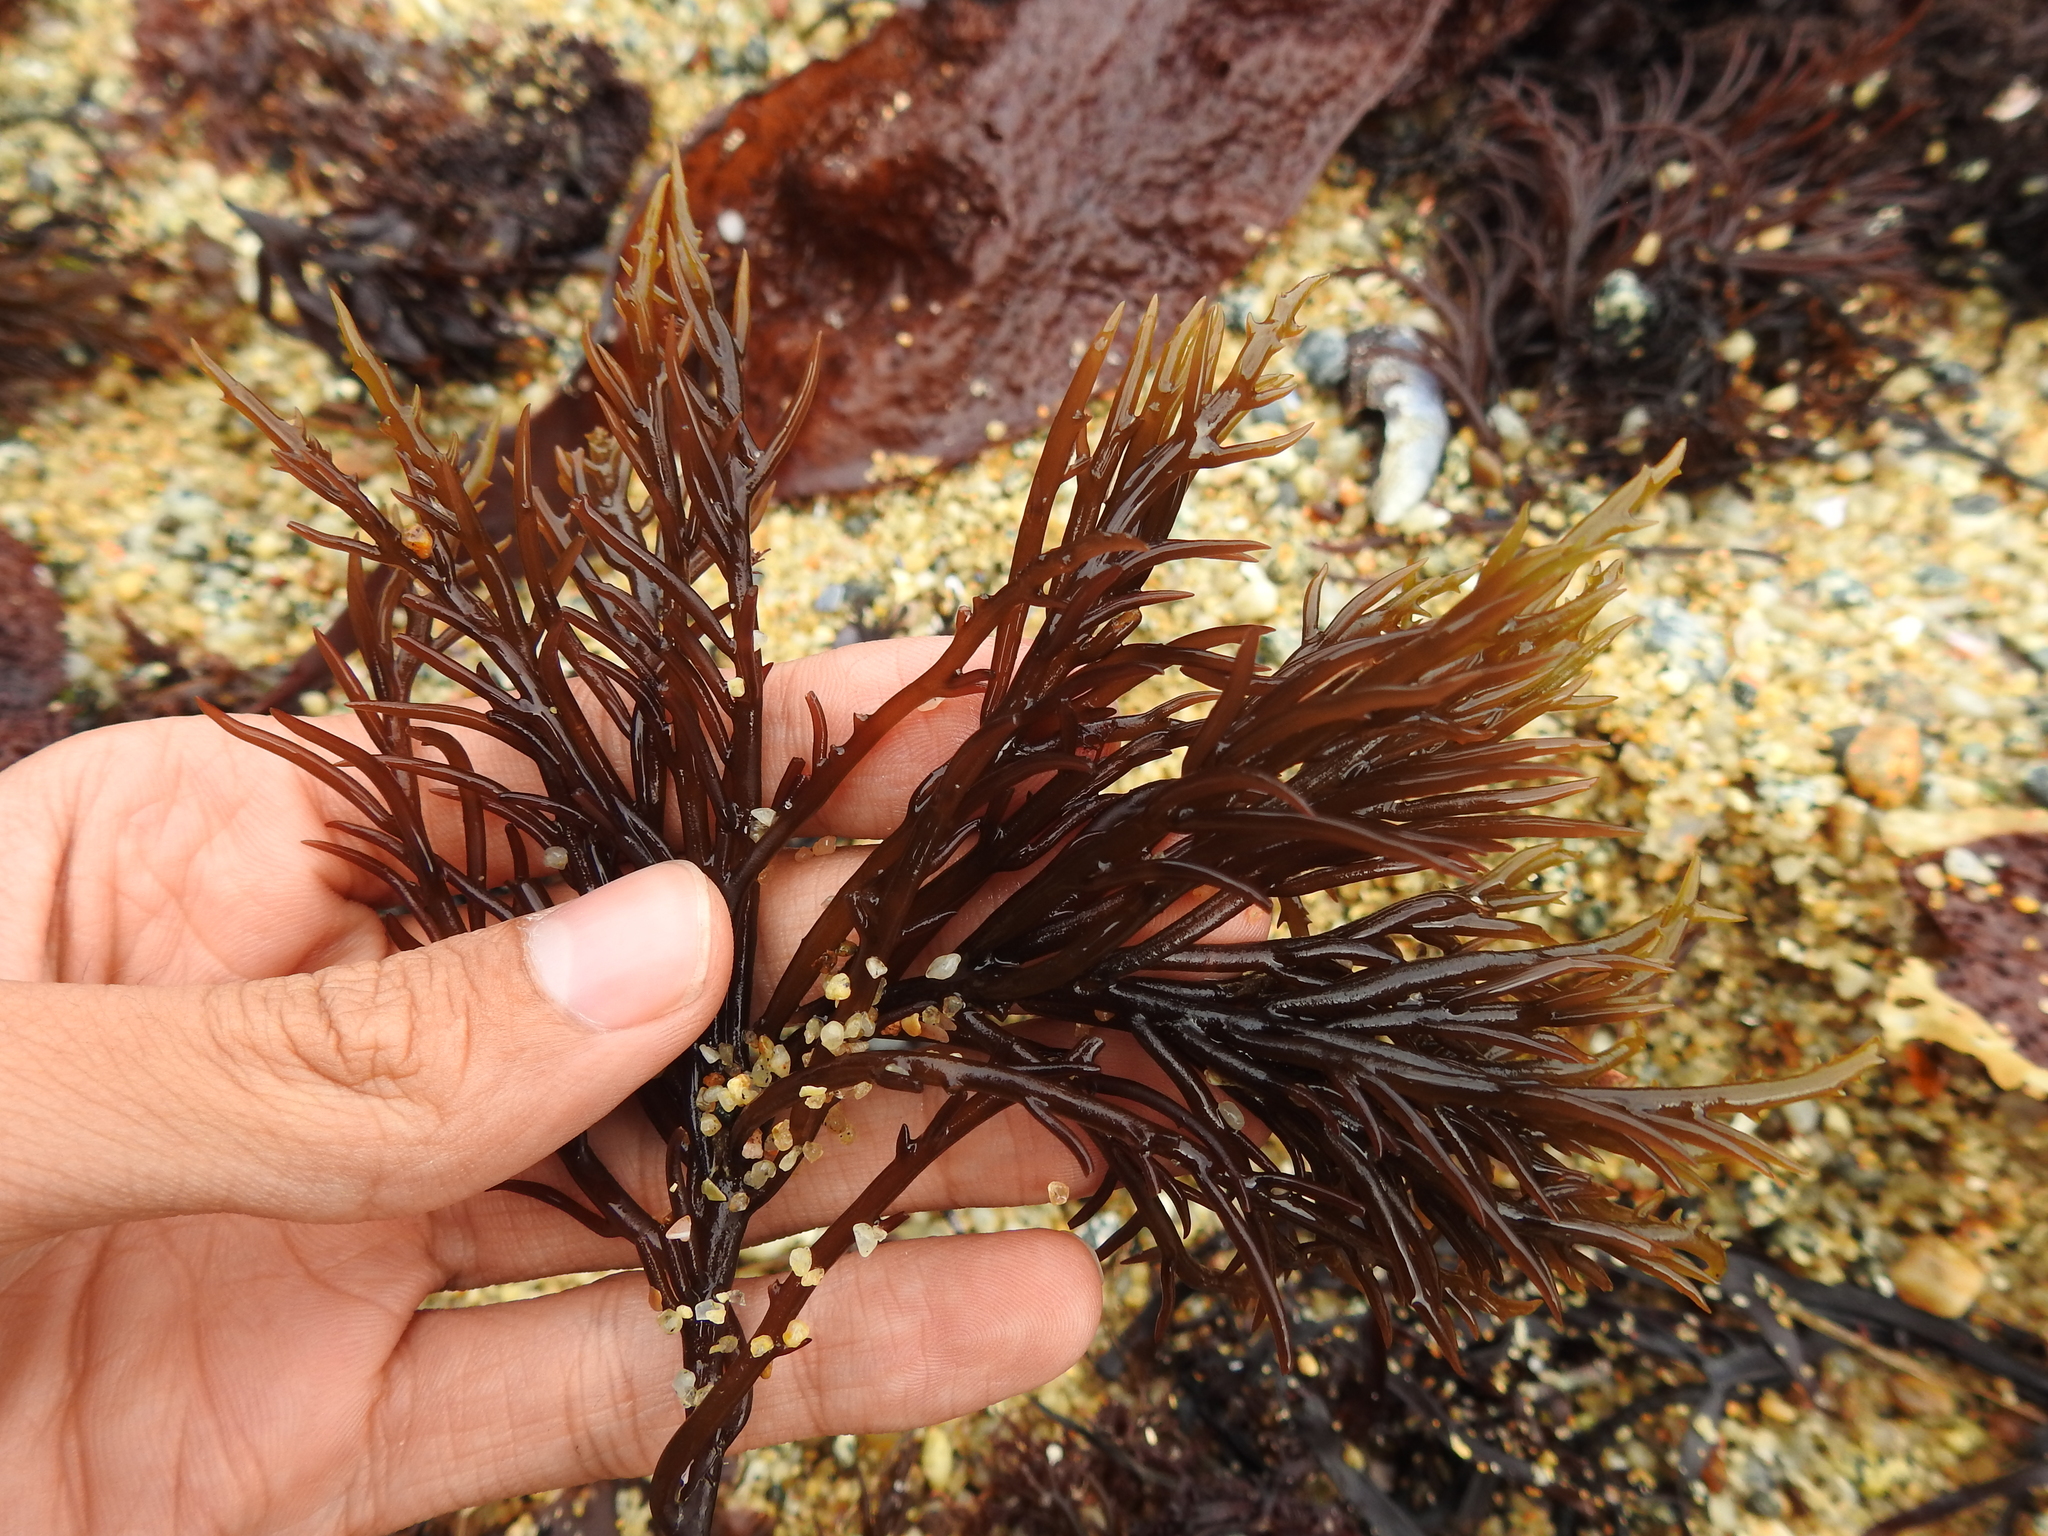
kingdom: Plantae
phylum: Rhodophyta
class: Florideophyceae
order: Gigartinales
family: Solieriaceae
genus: Sarcodiotheca
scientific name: Sarcodiotheca gaudichaudii
